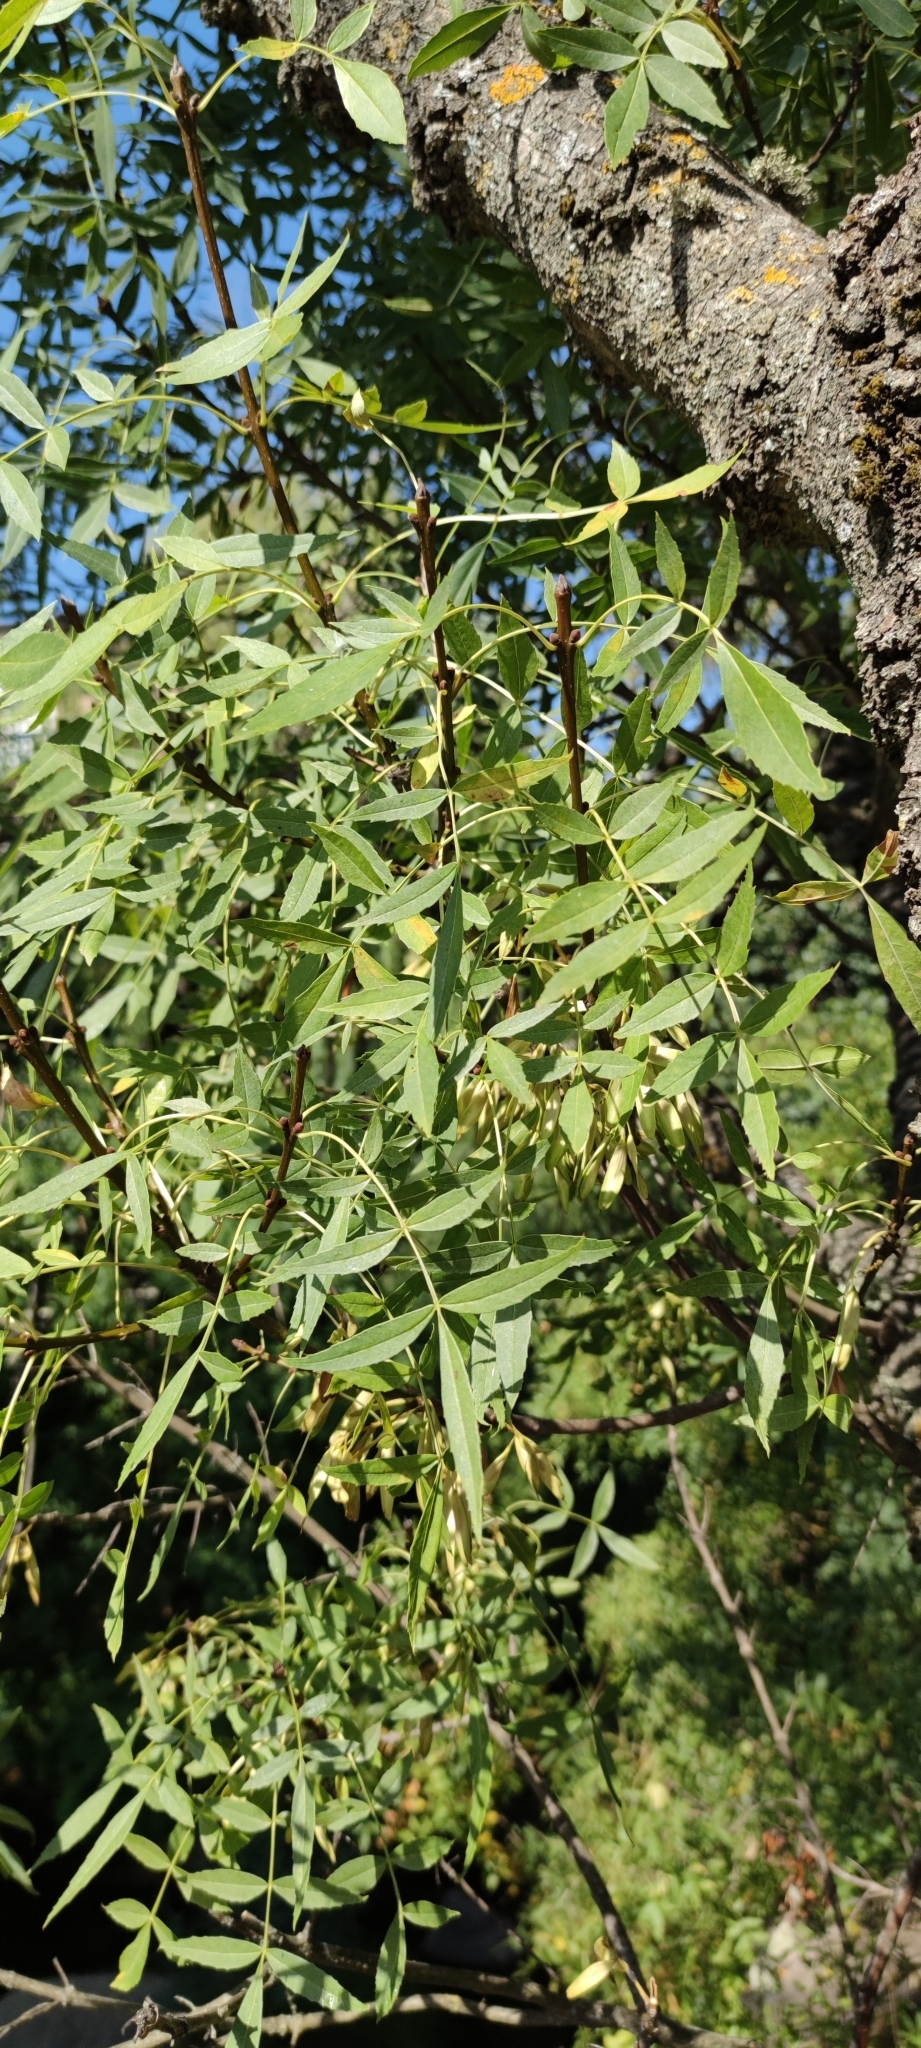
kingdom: Plantae
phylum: Tracheophyta
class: Magnoliopsida
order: Lamiales
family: Oleaceae
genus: Fraxinus
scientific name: Fraxinus angustifolia
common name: Narrow-leafed ash
